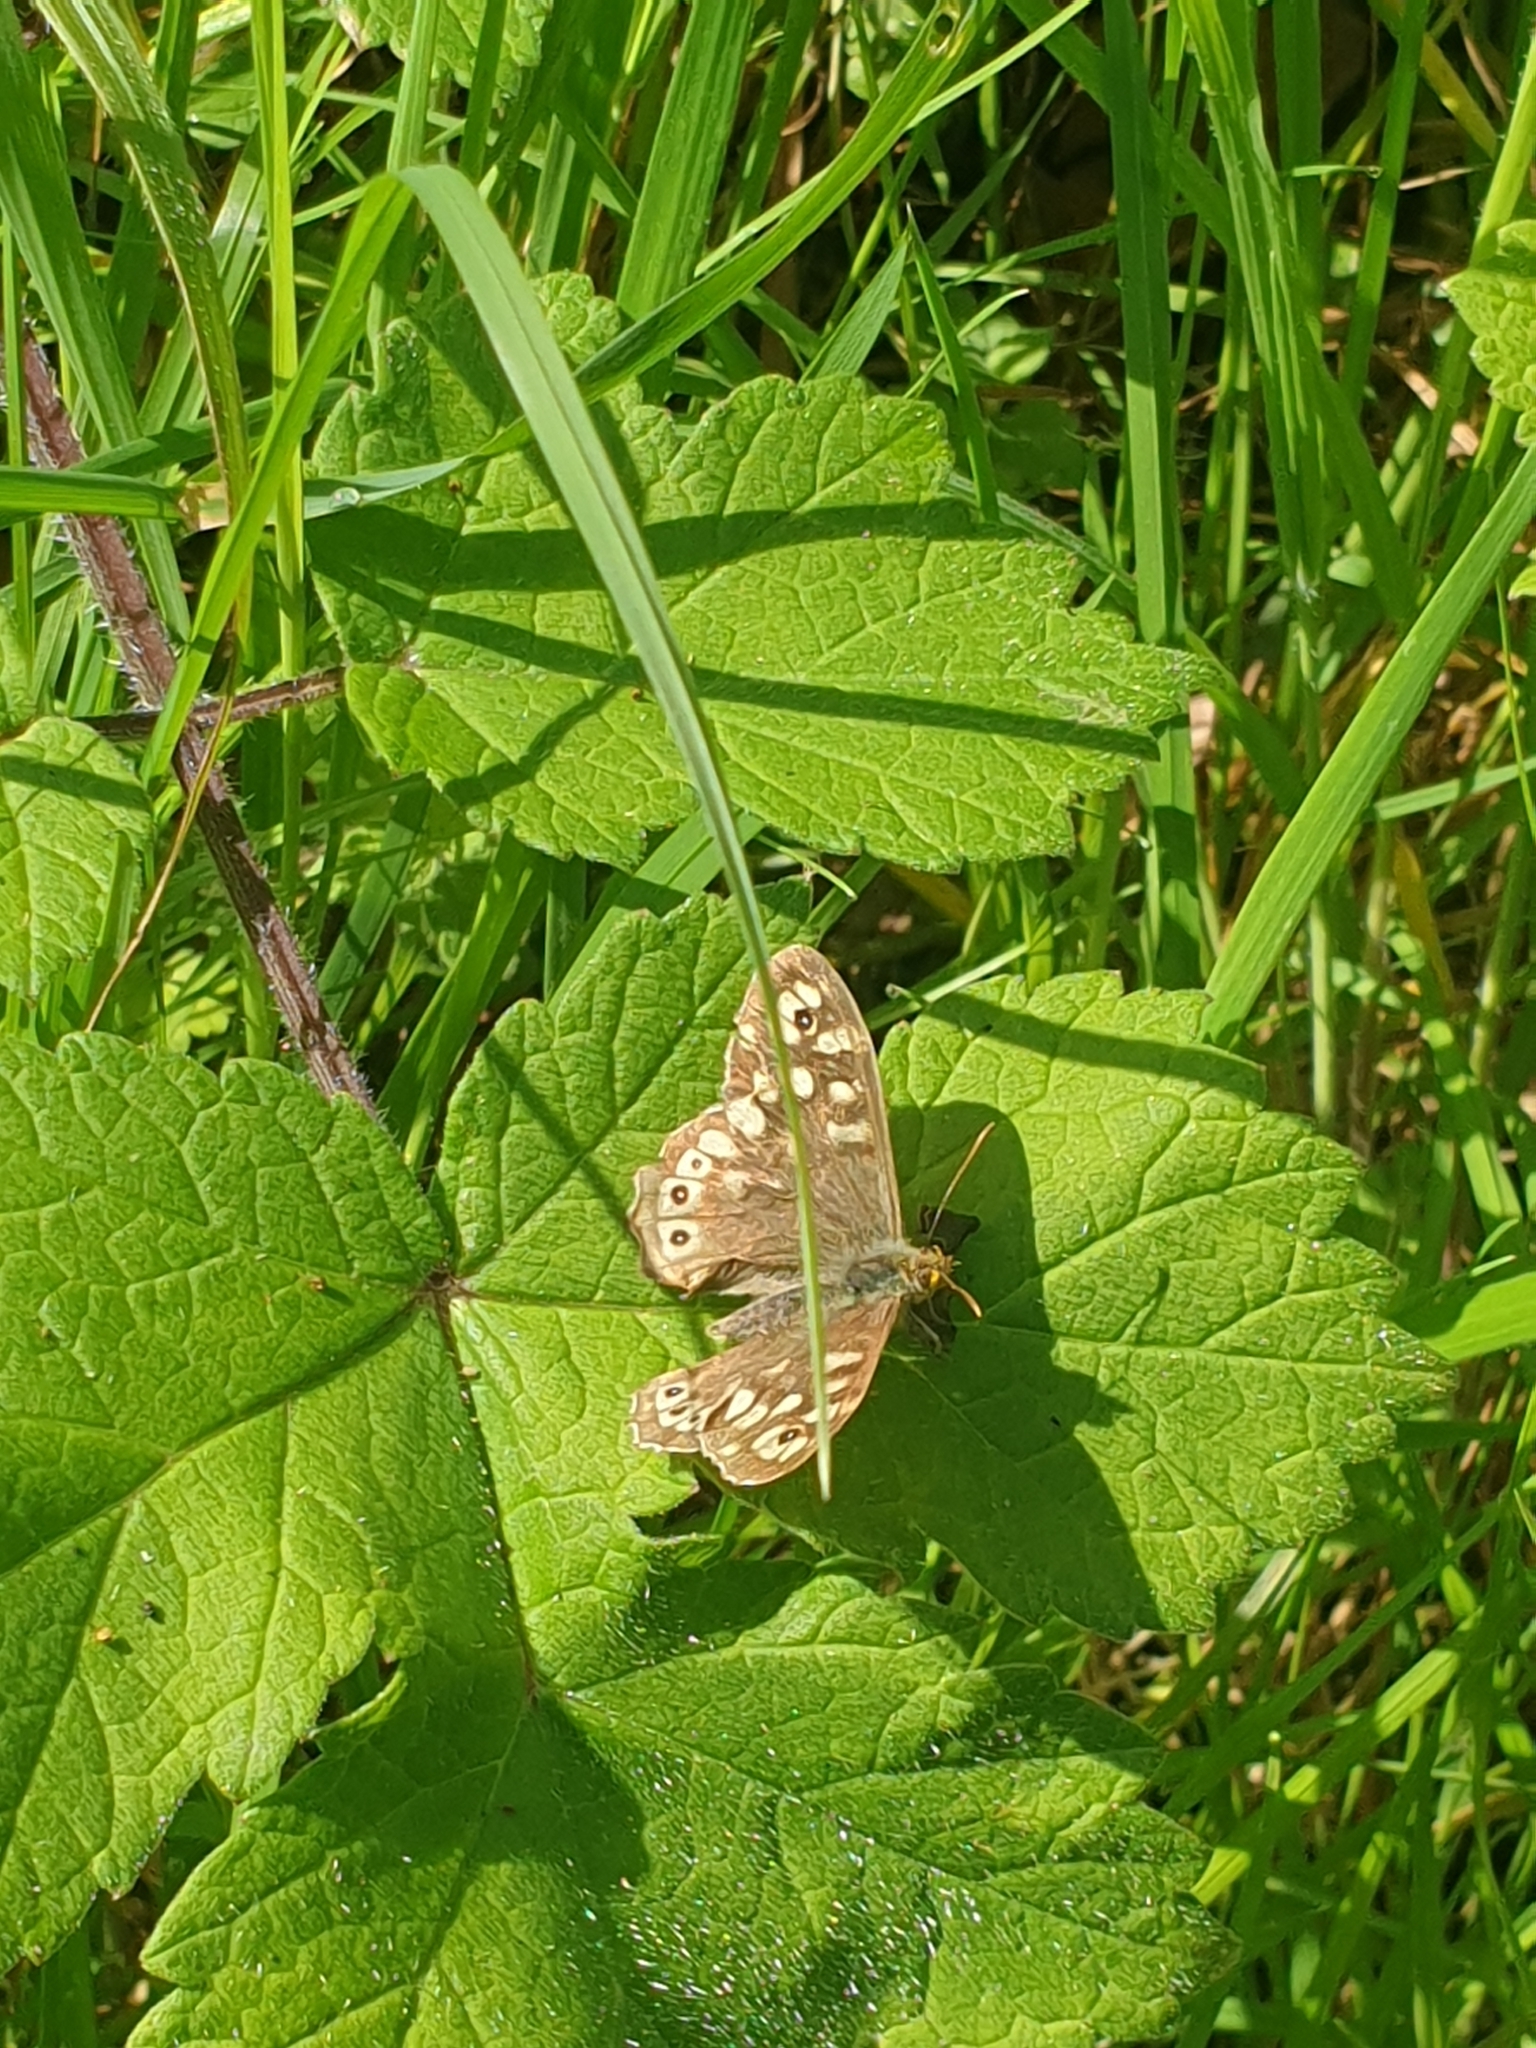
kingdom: Animalia
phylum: Arthropoda
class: Insecta
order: Lepidoptera
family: Nymphalidae
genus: Pararge
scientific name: Pararge aegeria
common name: Speckled wood
